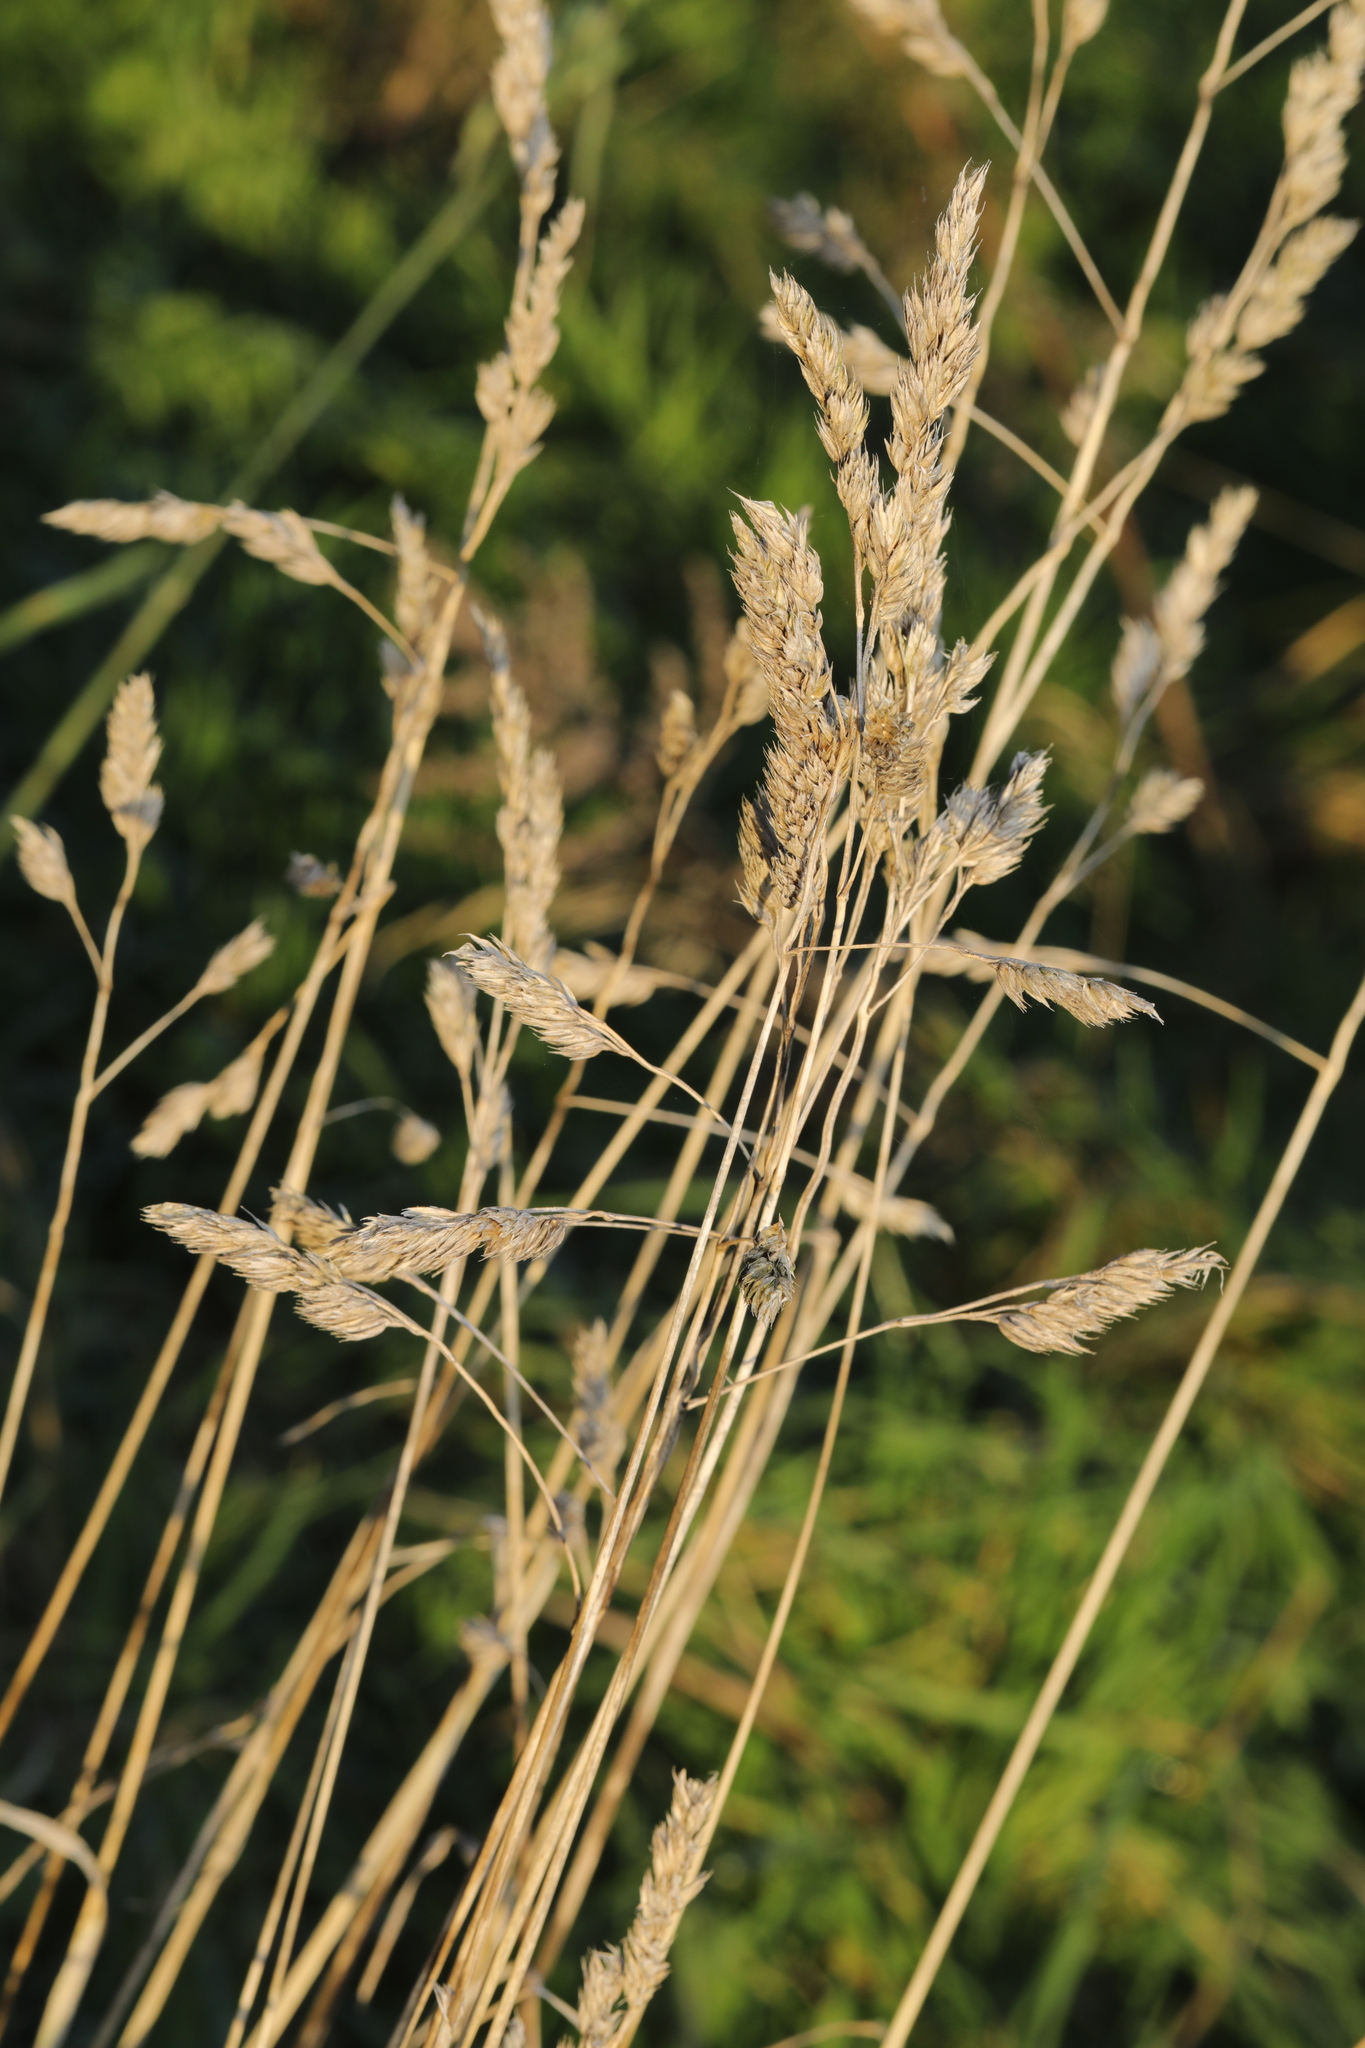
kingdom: Plantae
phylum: Tracheophyta
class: Liliopsida
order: Poales
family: Poaceae
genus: Dactylis
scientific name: Dactylis glomerata
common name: Orchardgrass
